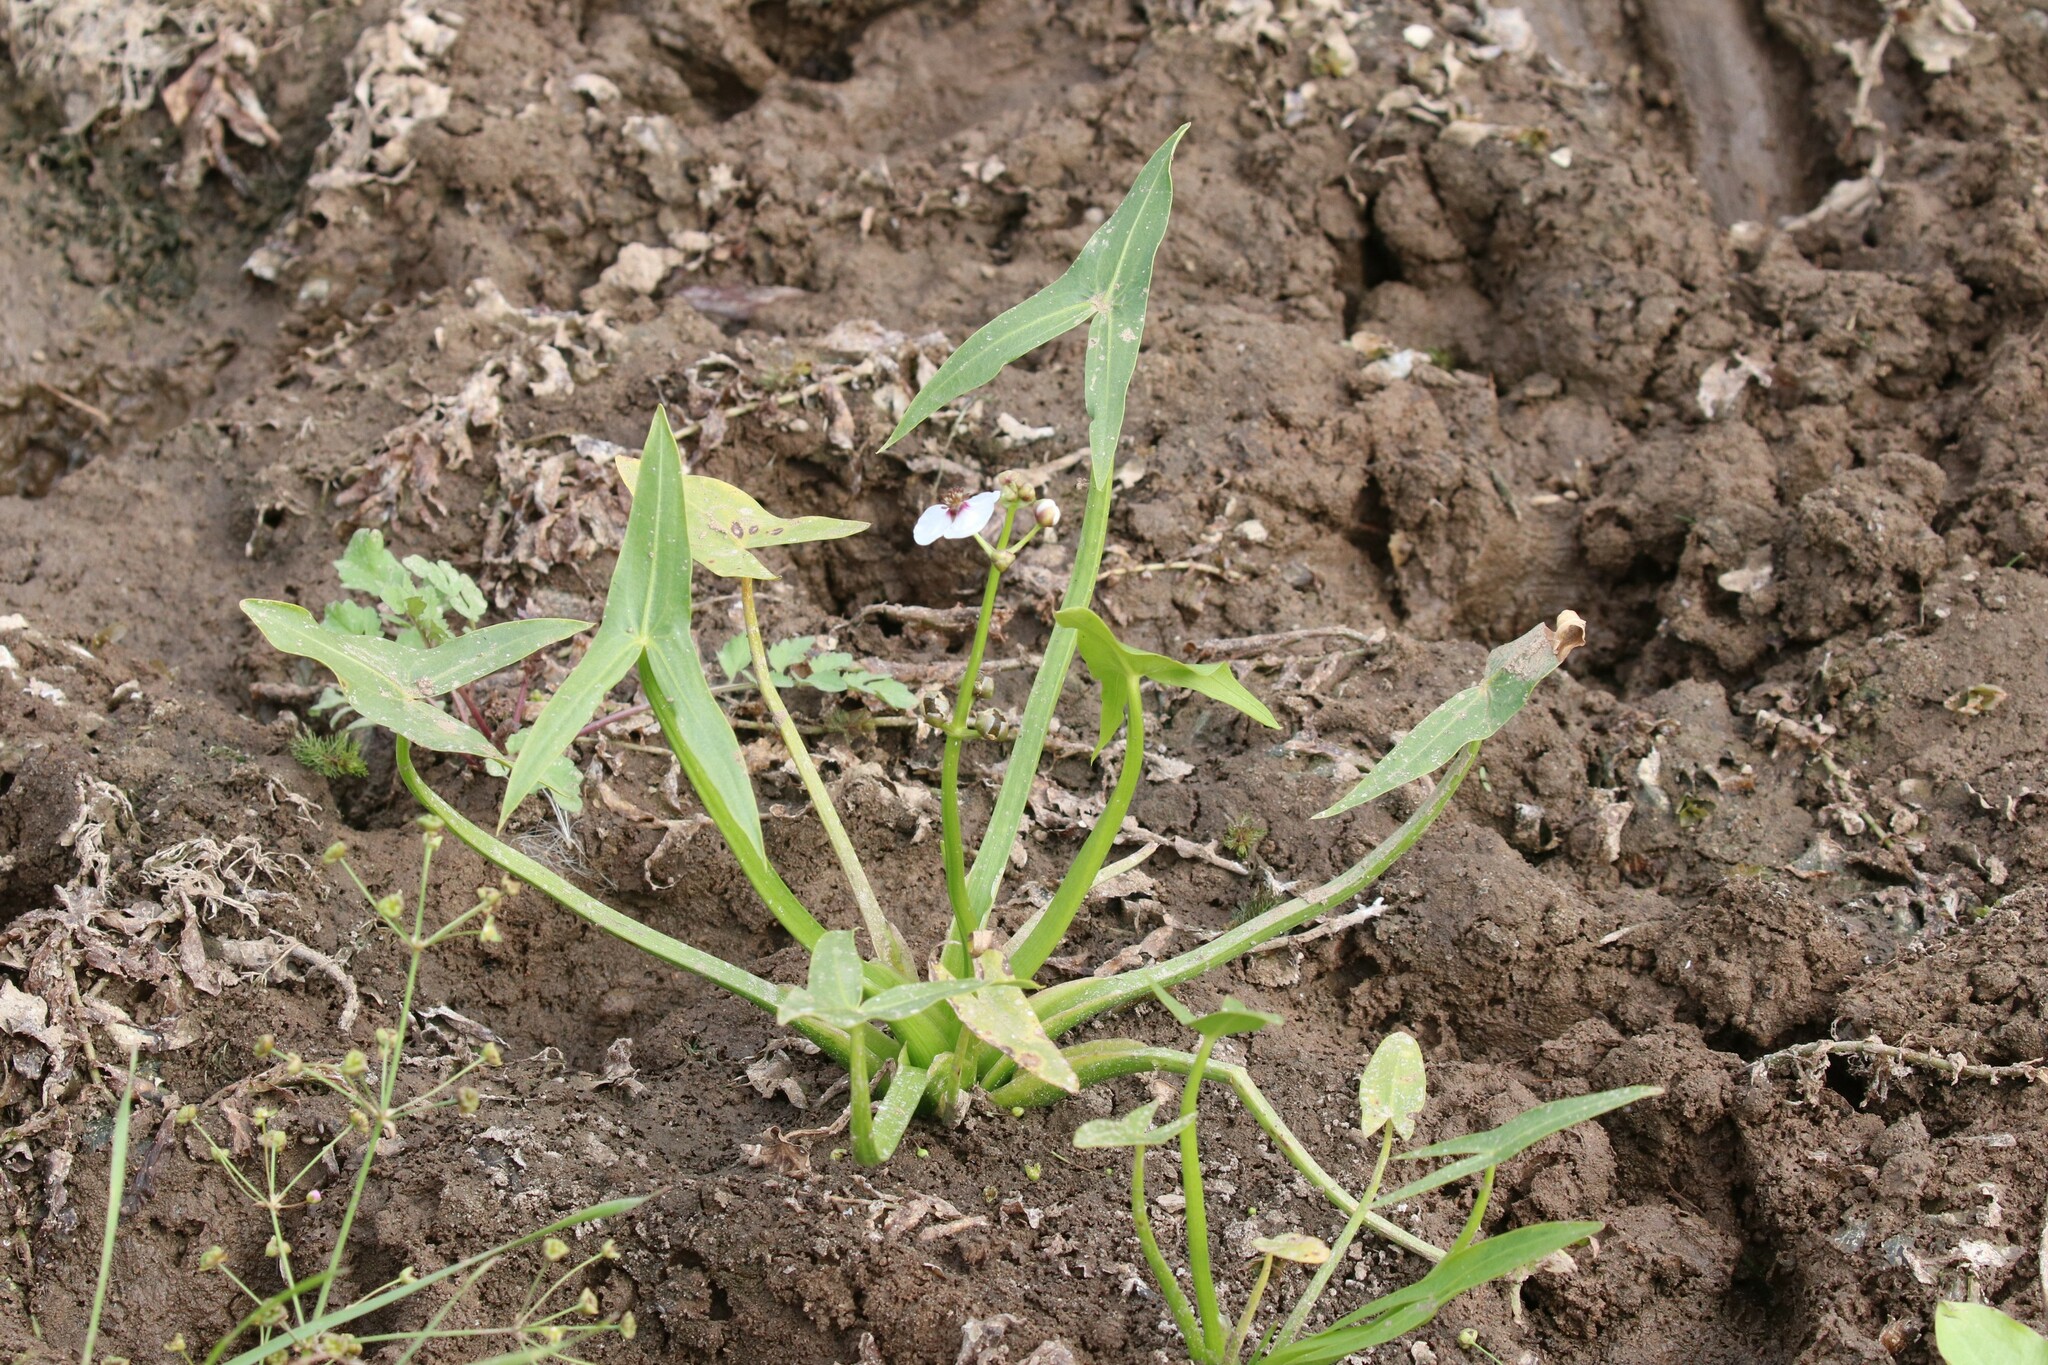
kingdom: Plantae
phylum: Tracheophyta
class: Liliopsida
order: Alismatales
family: Alismataceae
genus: Sagittaria
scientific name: Sagittaria sagittifolia
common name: Arrowhead
